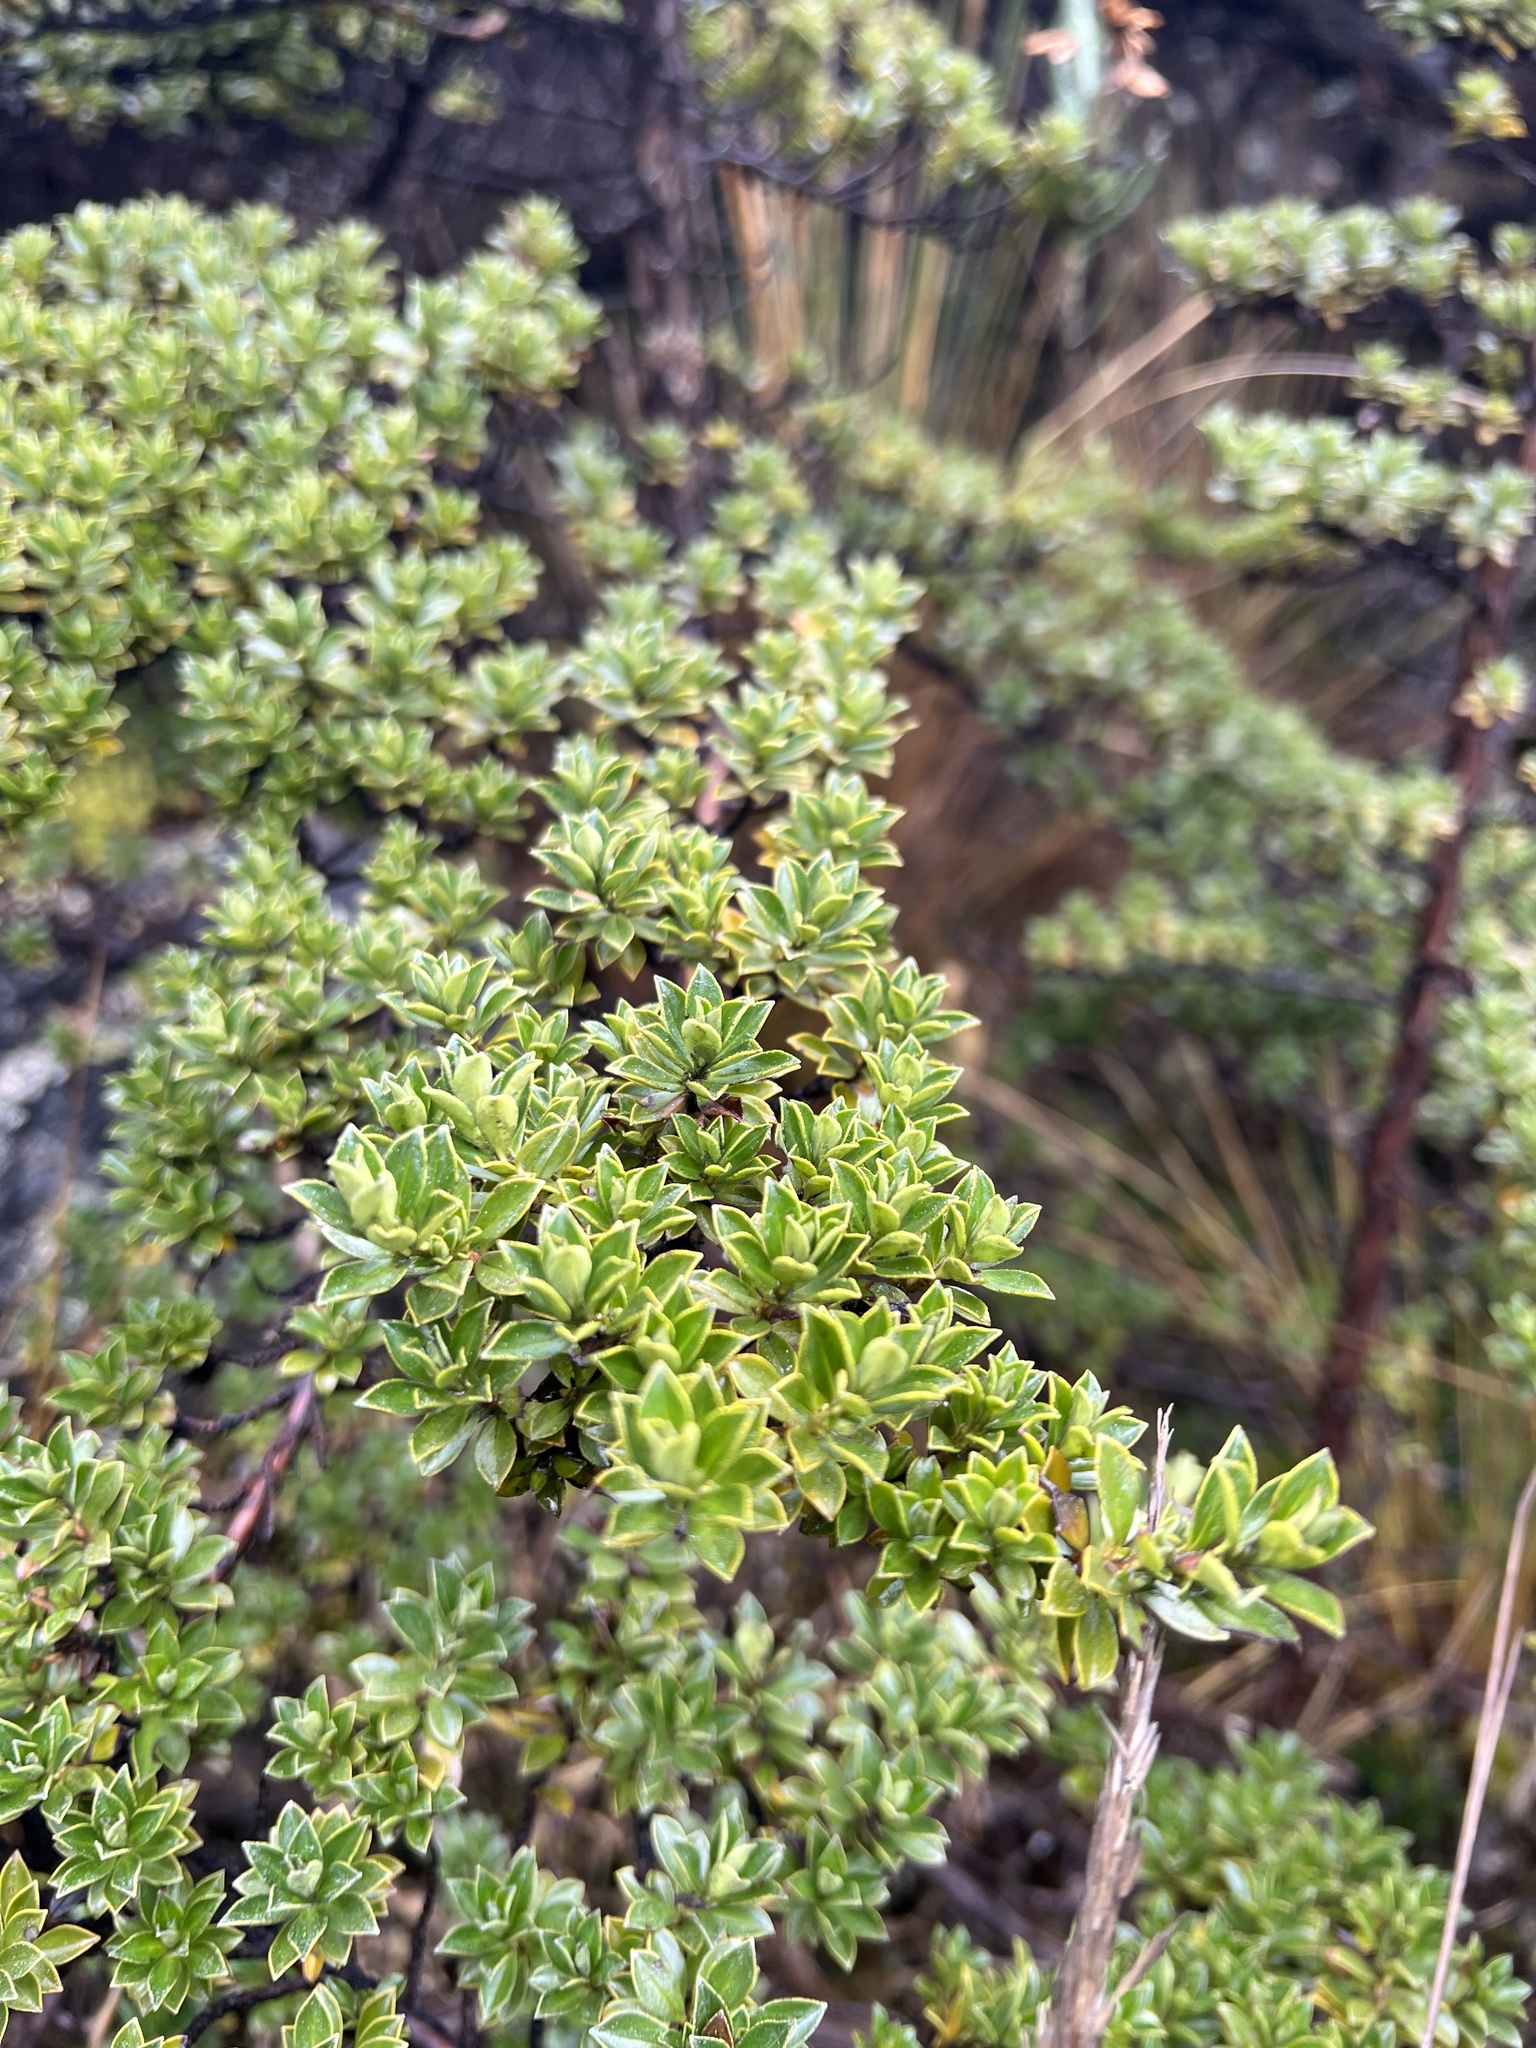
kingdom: Plantae
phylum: Tracheophyta
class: Magnoliopsida
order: Escalloniales
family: Escalloniaceae
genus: Escallonia
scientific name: Escallonia myrtilloides
